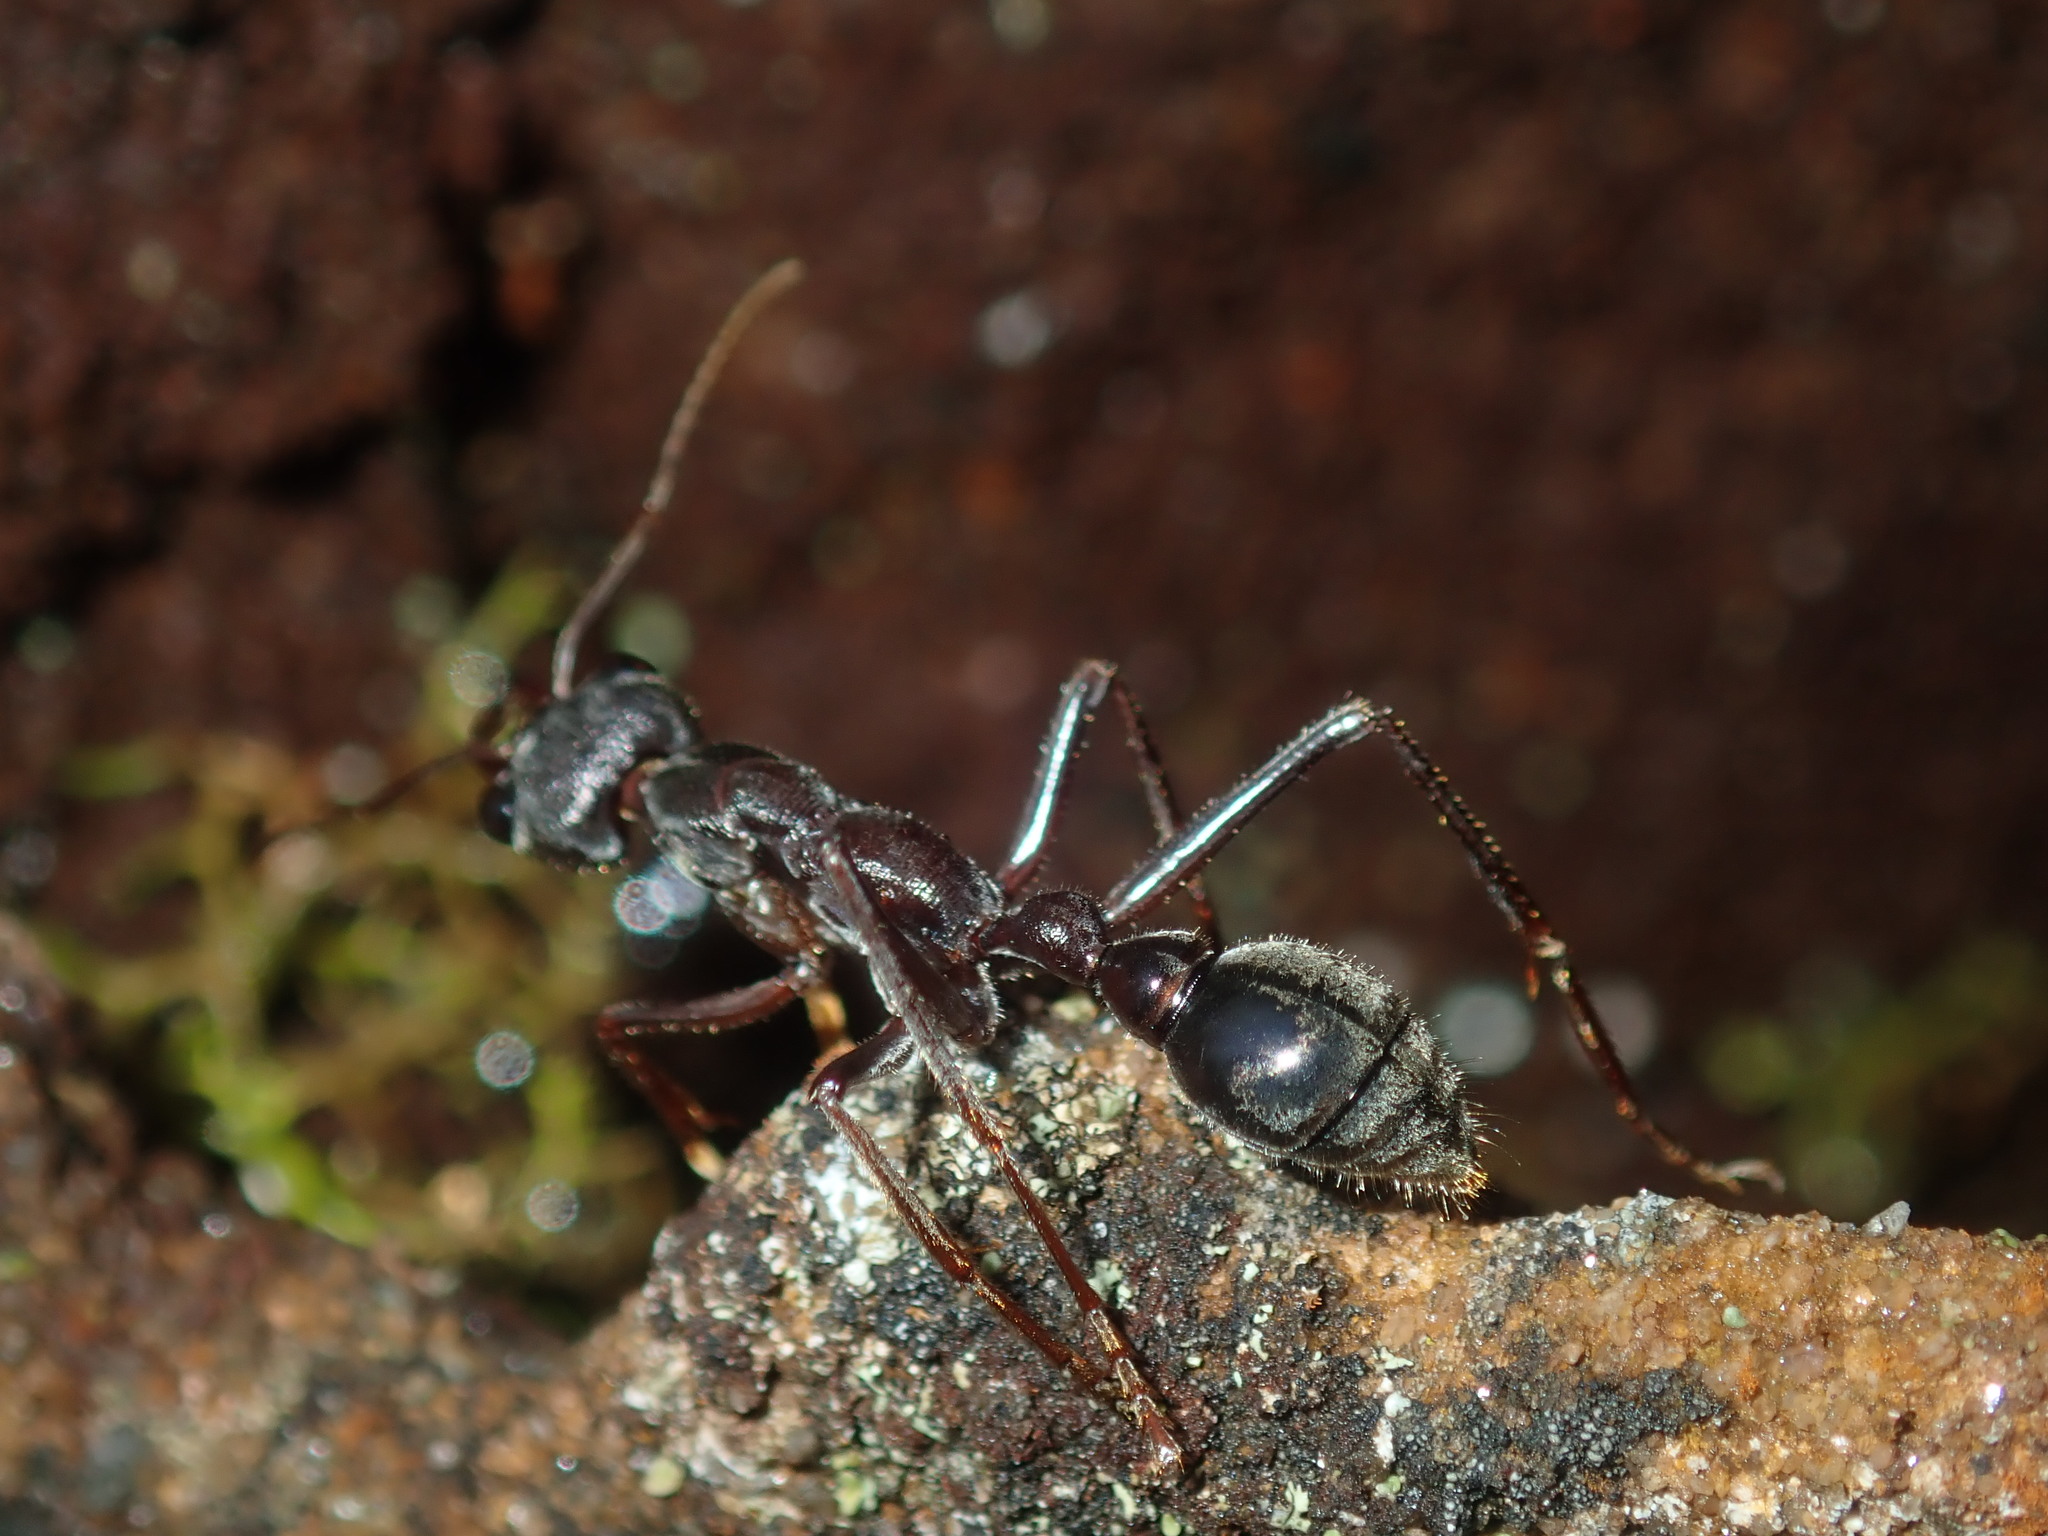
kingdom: Animalia
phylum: Arthropoda
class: Insecta
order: Hymenoptera
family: Formicidae
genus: Myrmecia
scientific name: Myrmecia pyriformis
